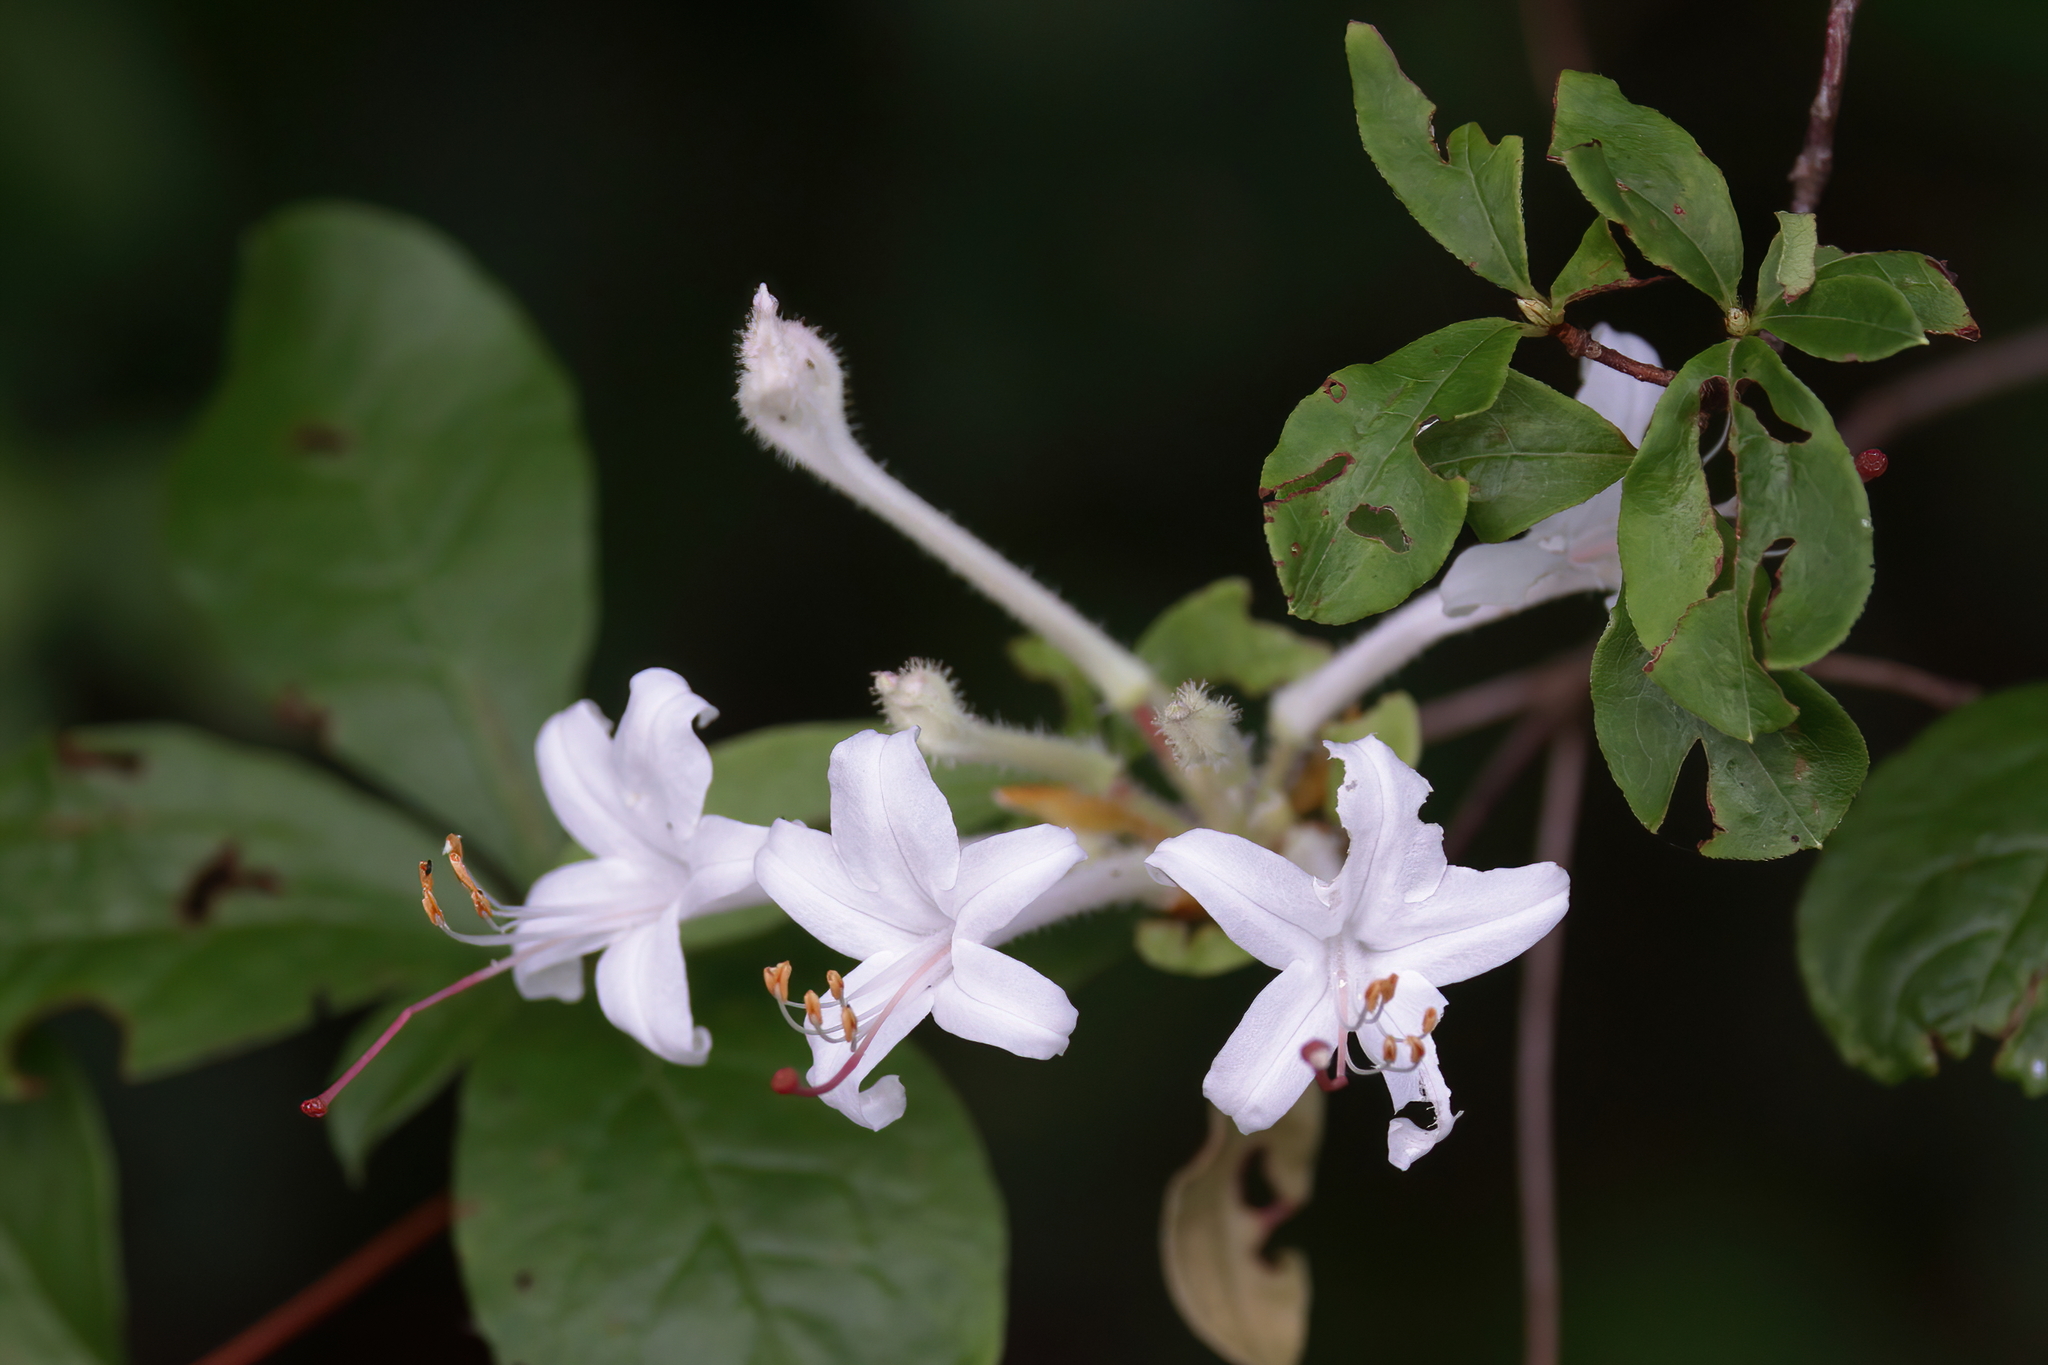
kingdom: Plantae
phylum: Tracheophyta
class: Magnoliopsida
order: Ericales
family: Ericaceae
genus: Rhododendron
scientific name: Rhododendron serrulatum
